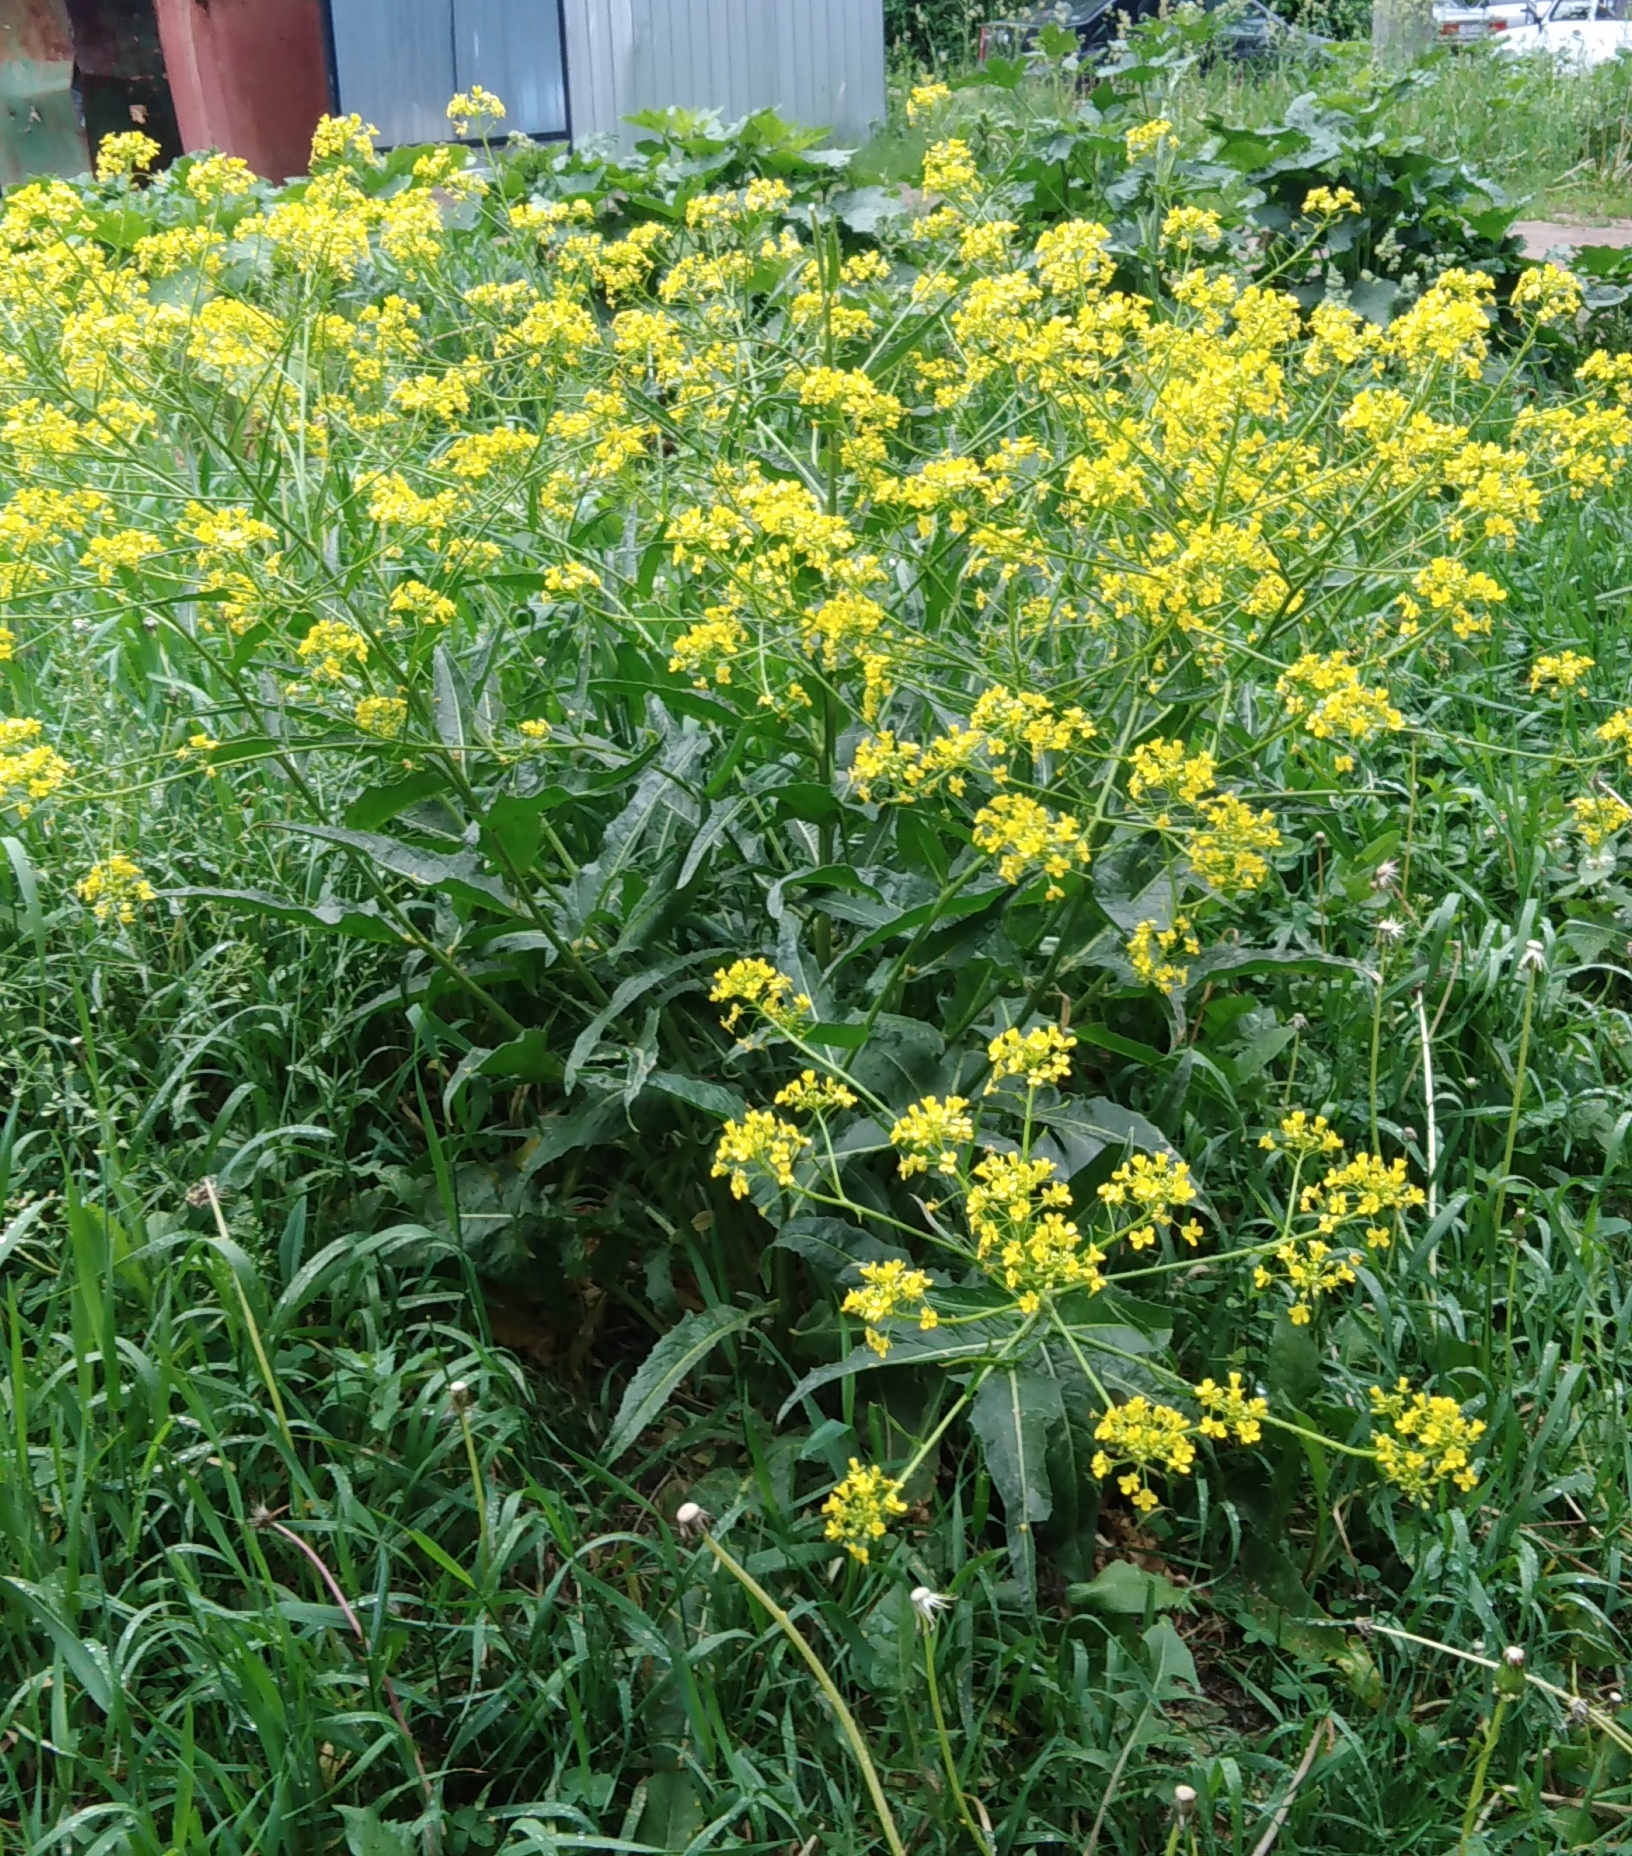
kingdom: Plantae
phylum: Tracheophyta
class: Magnoliopsida
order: Brassicales
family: Brassicaceae
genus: Bunias
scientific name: Bunias orientalis
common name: Warty-cabbage
